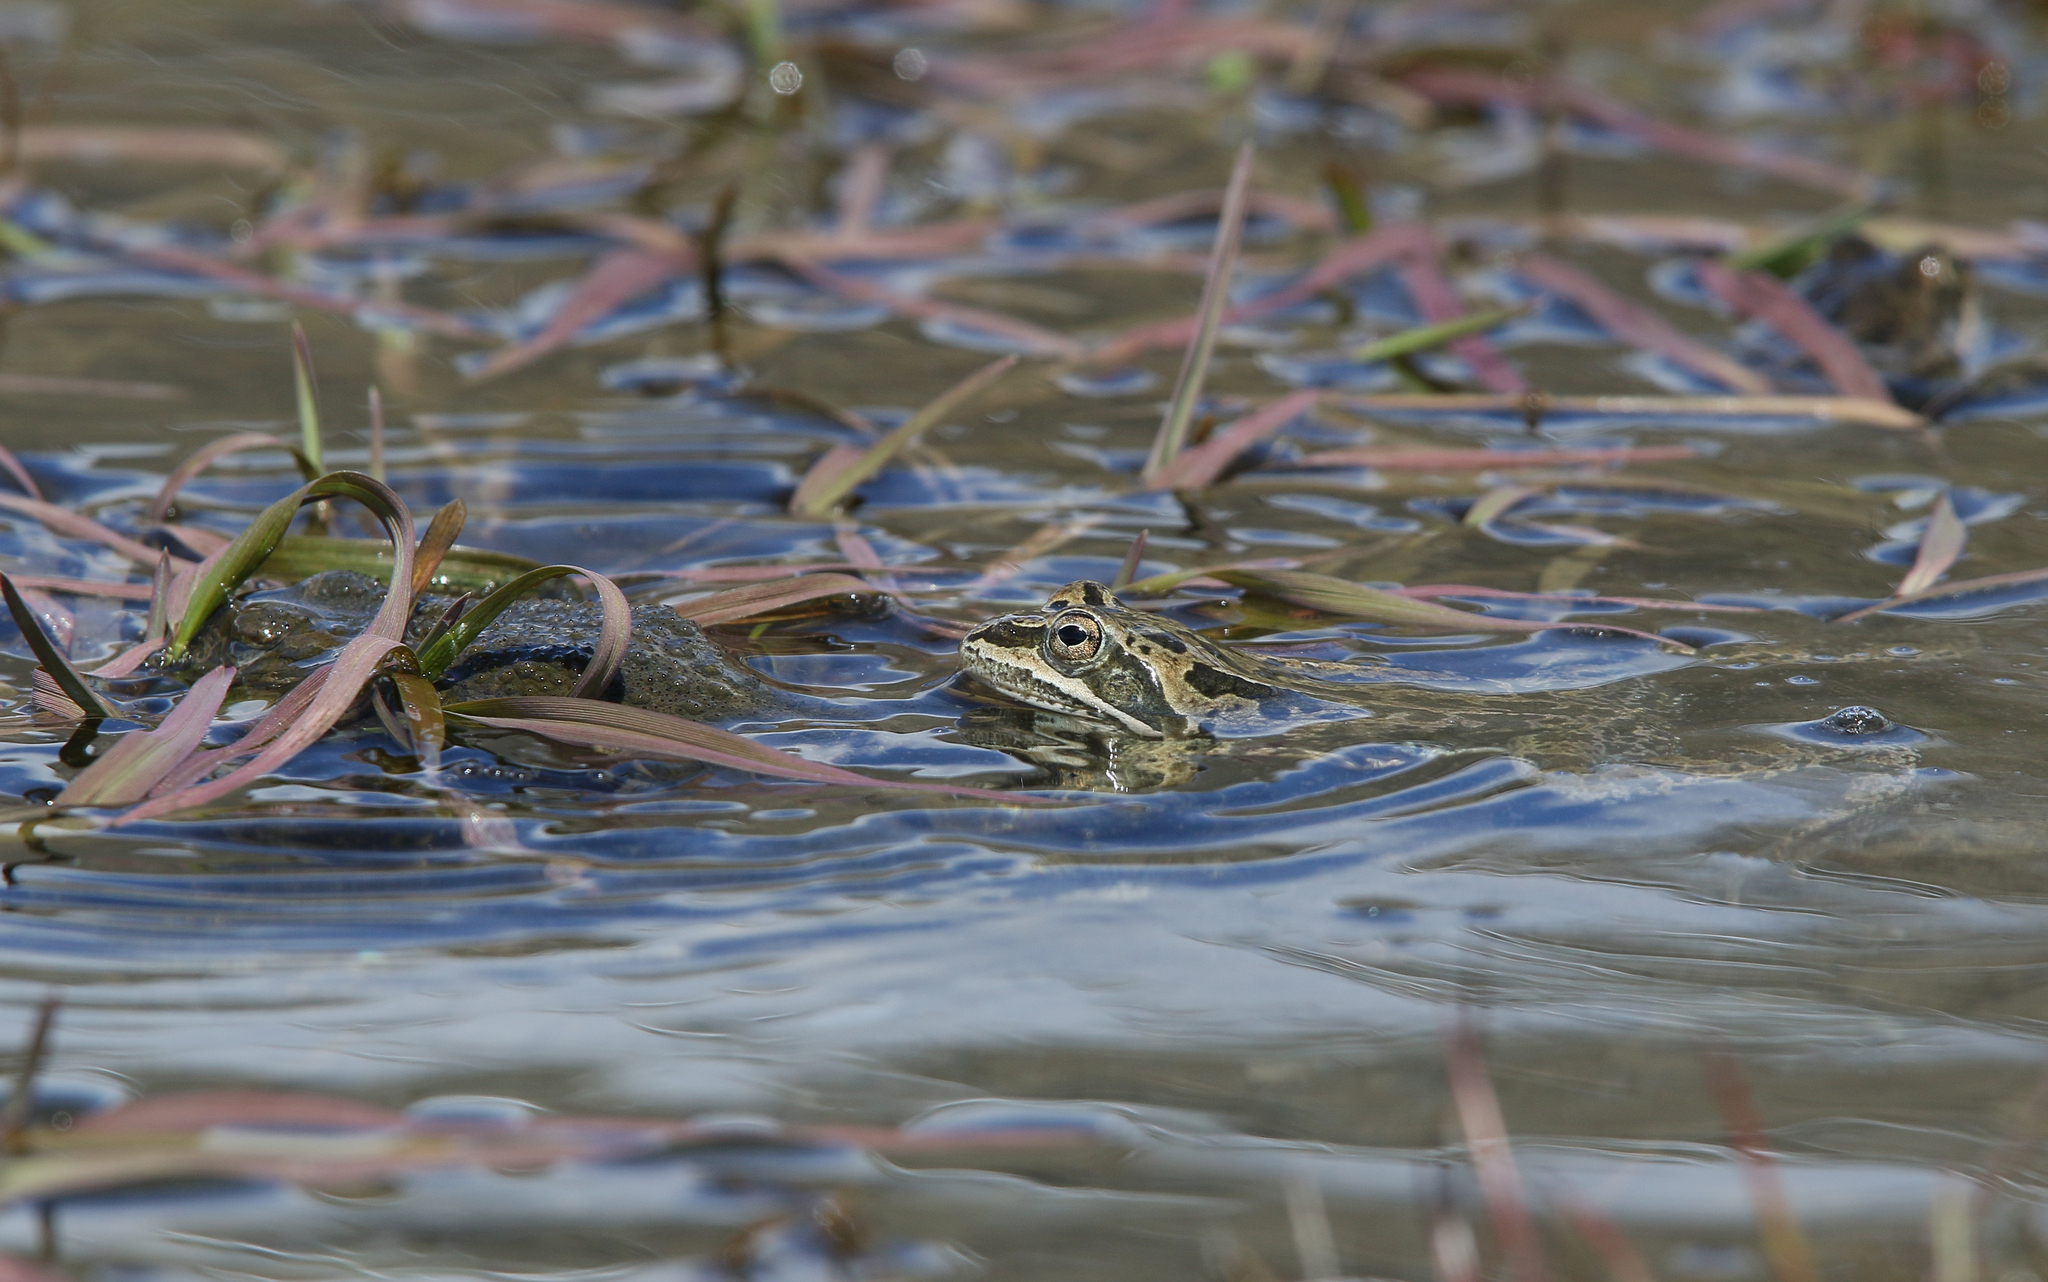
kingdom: Animalia
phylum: Chordata
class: Amphibia
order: Anura
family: Ranidae
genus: Rana
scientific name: Rana macrocnemis
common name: Banded frog
